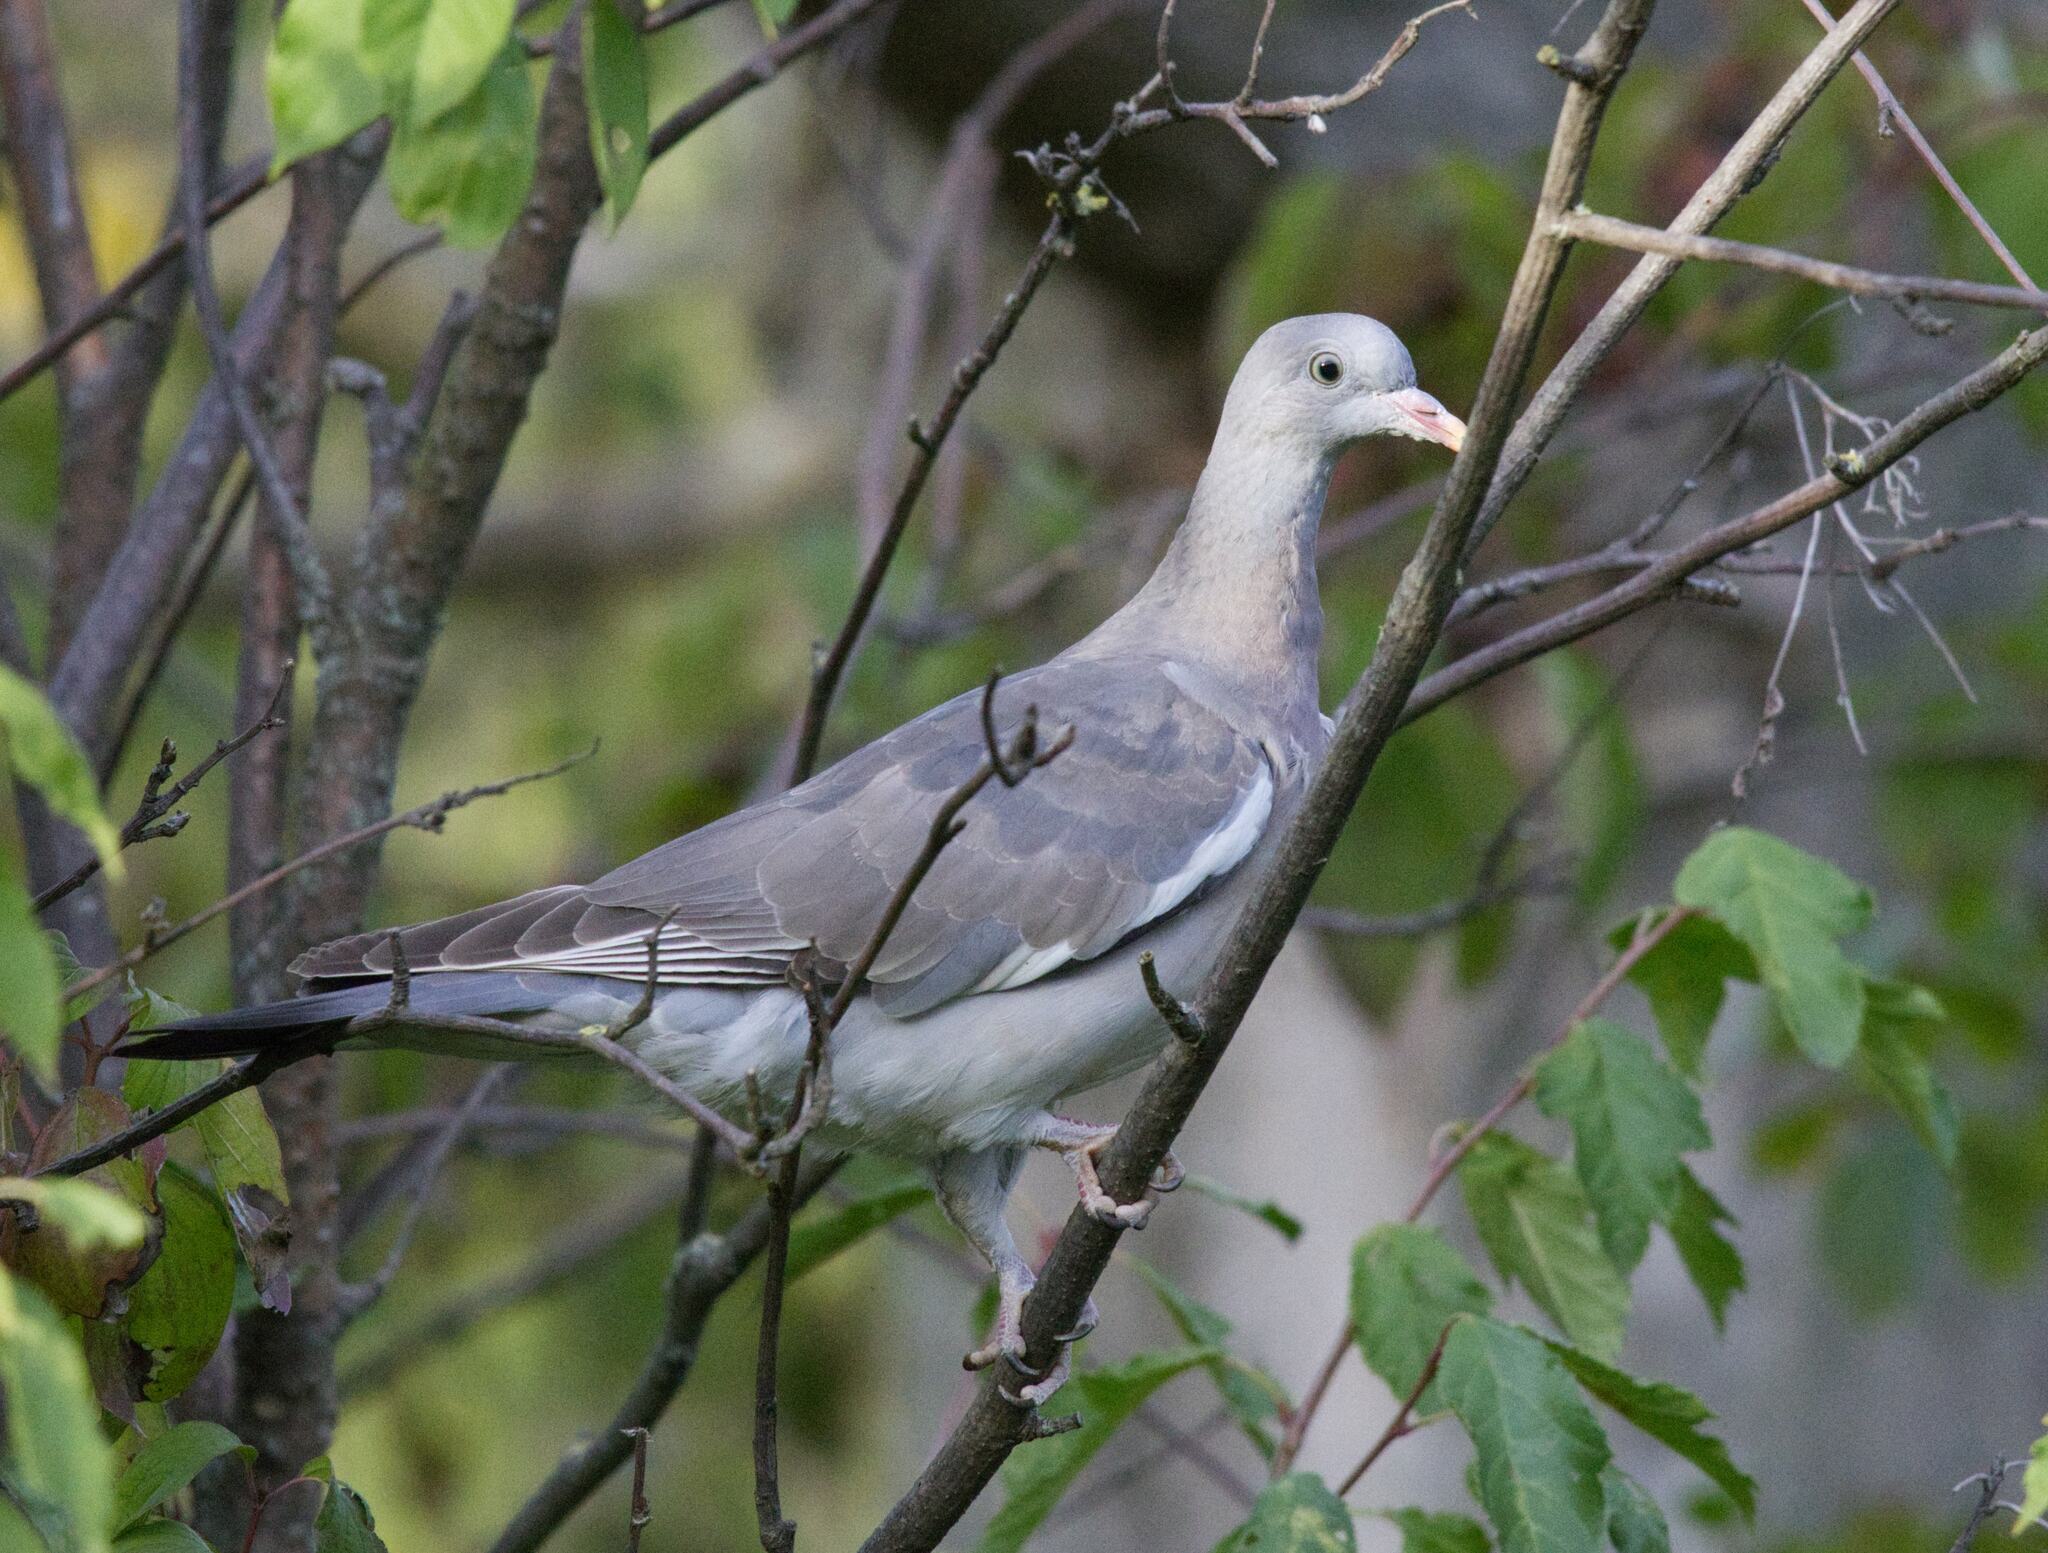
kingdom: Animalia
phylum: Chordata
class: Aves
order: Columbiformes
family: Columbidae
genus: Columba
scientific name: Columba palumbus
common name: Common wood pigeon
